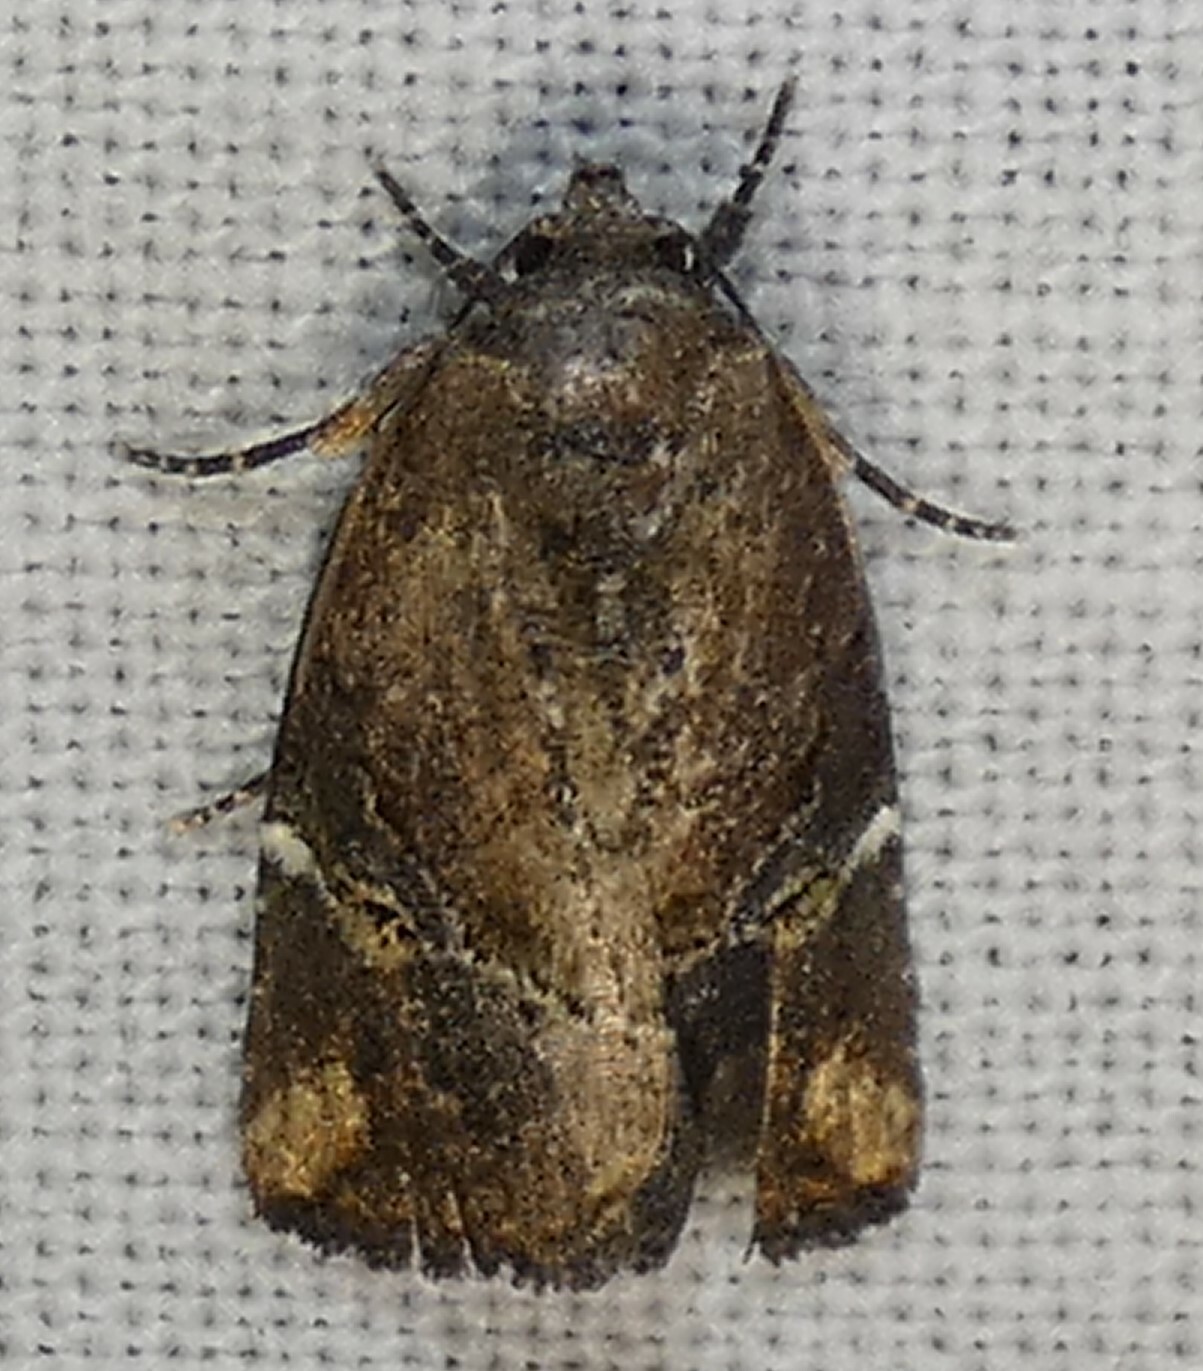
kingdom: Animalia
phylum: Arthropoda
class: Insecta
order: Lepidoptera
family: Noctuidae
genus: Elaphria
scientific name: Elaphria chalcedonia
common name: Chalcedony midget
